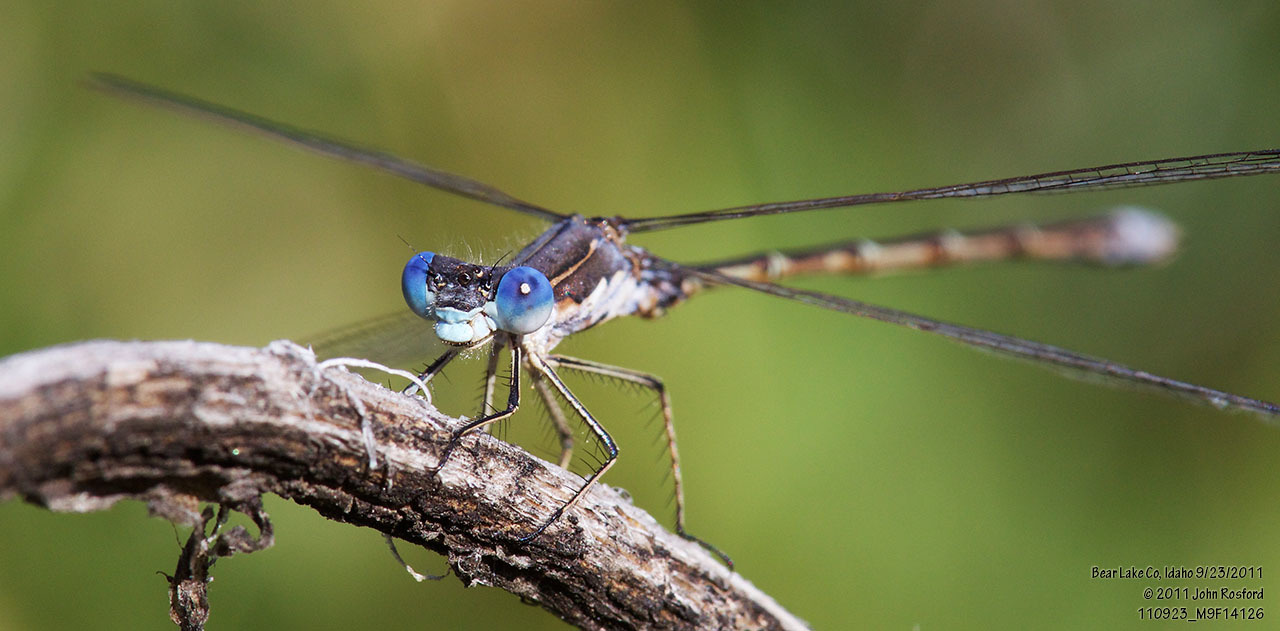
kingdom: Animalia
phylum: Arthropoda
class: Insecta
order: Odonata
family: Lestidae
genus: Lestes
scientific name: Lestes congener
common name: Spotted spreadwing
